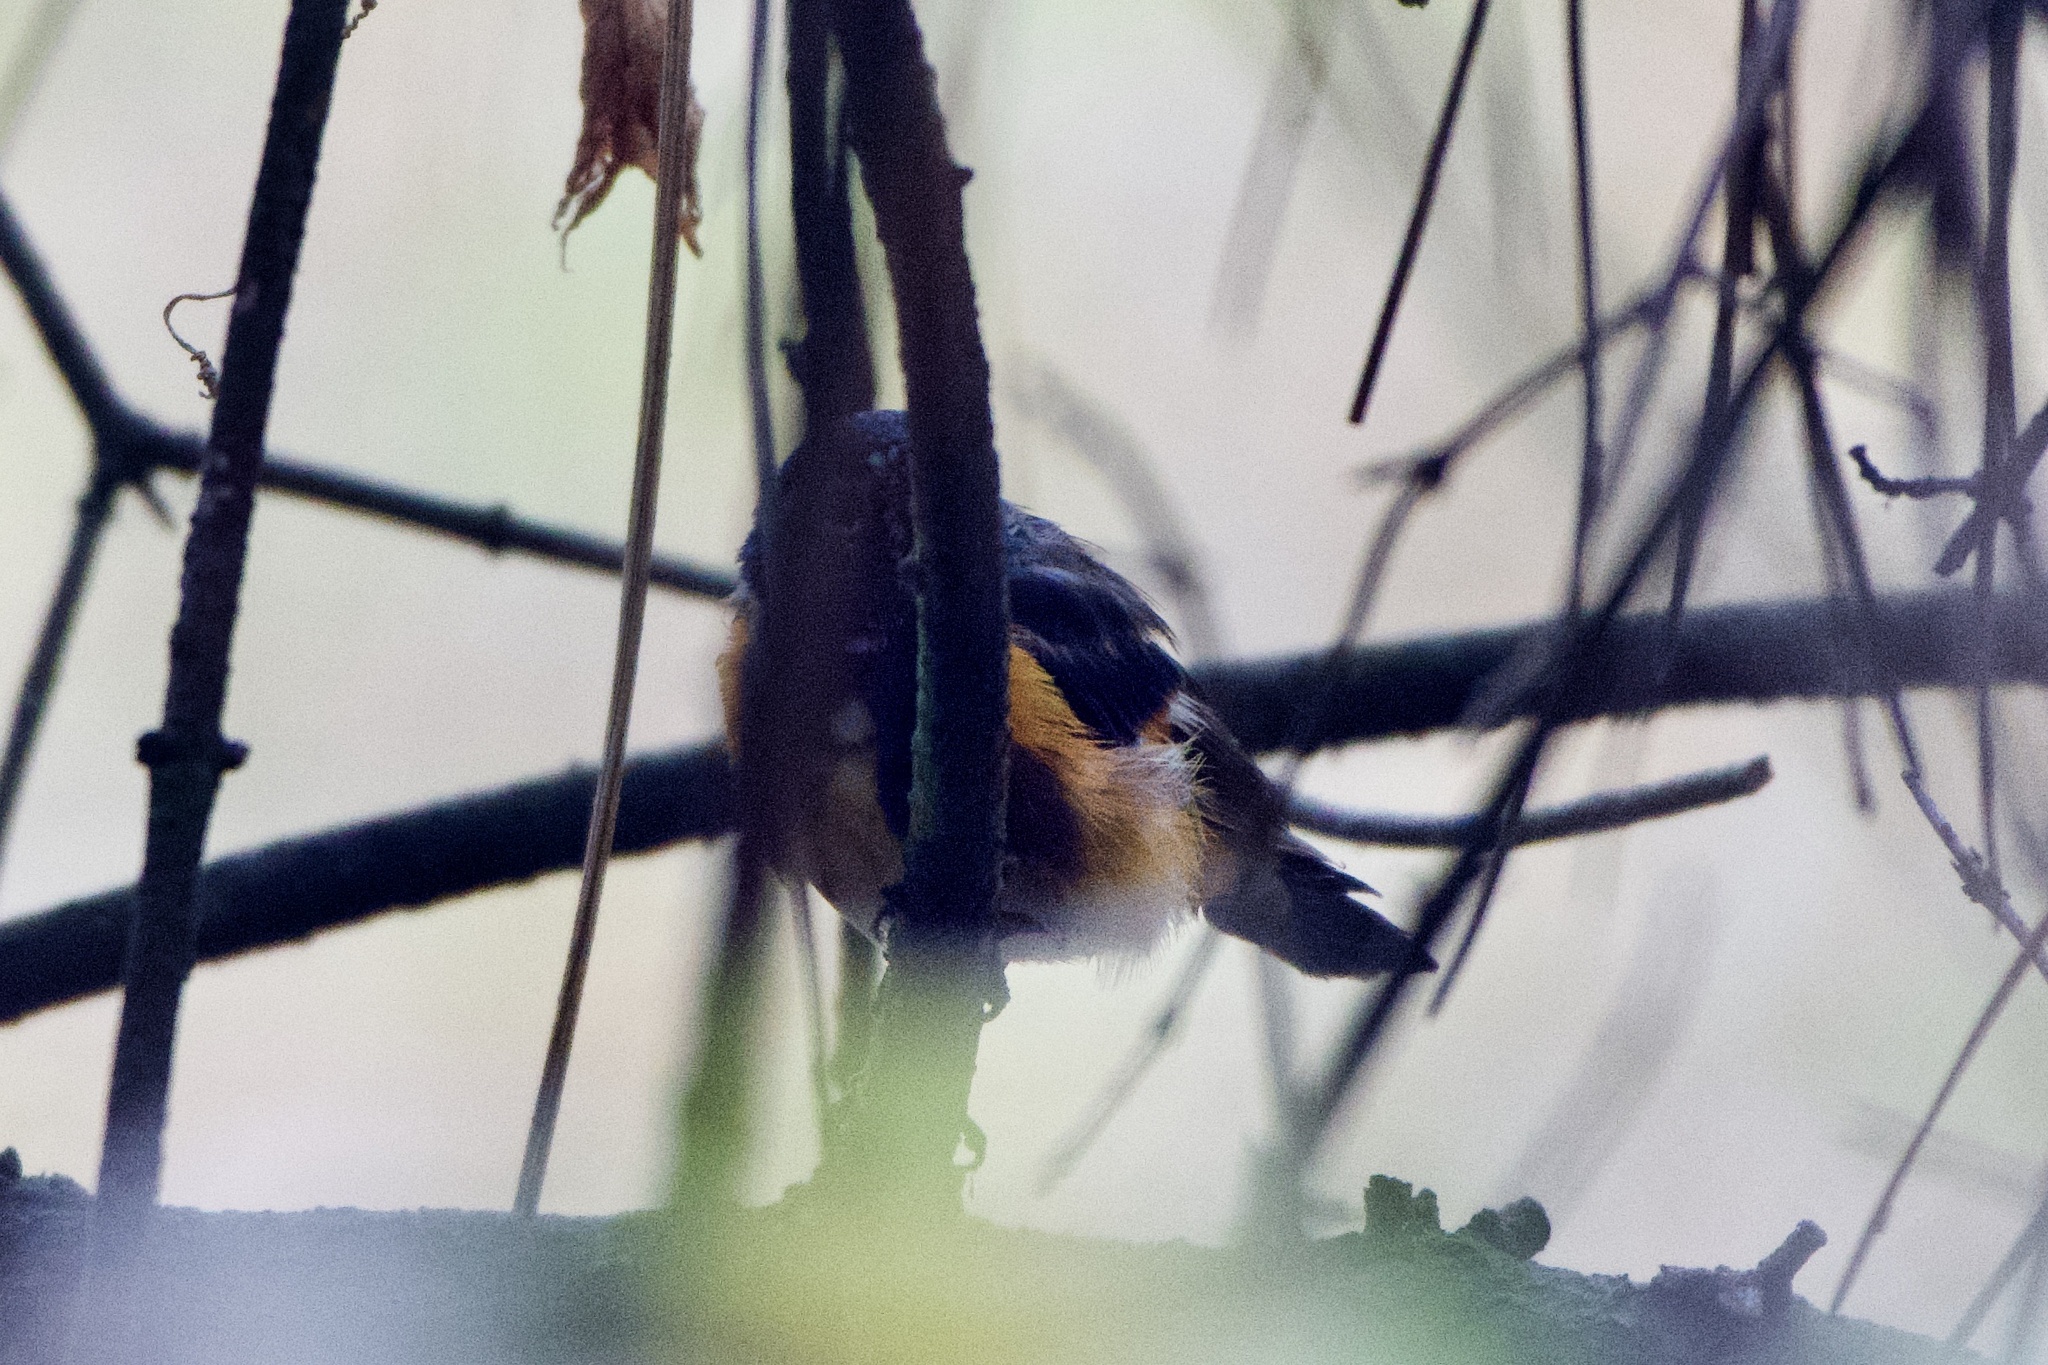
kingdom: Animalia
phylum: Chordata
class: Aves
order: Passeriformes
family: Parulidae
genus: Setophaga
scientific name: Setophaga ruticilla
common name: American redstart
